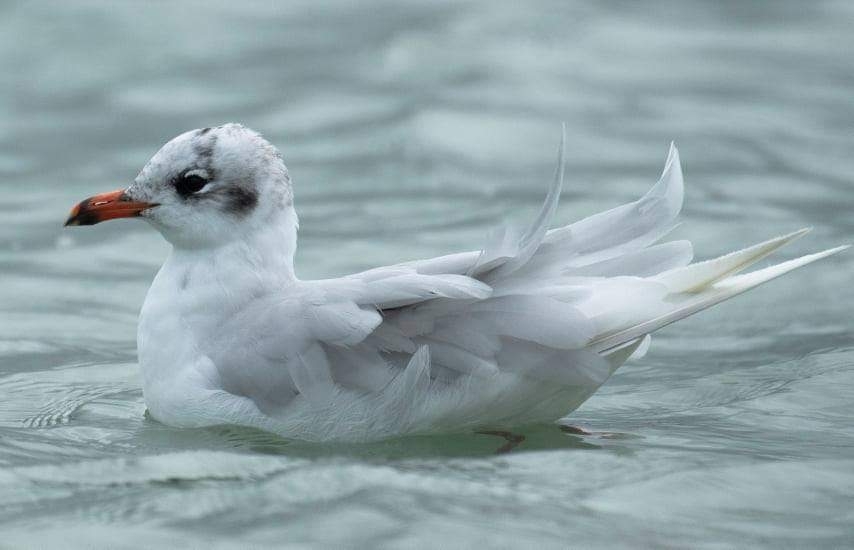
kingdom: Animalia
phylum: Chordata
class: Aves
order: Charadriiformes
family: Laridae
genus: Ichthyaetus
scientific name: Ichthyaetus melanocephalus
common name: Mediterranean gull
